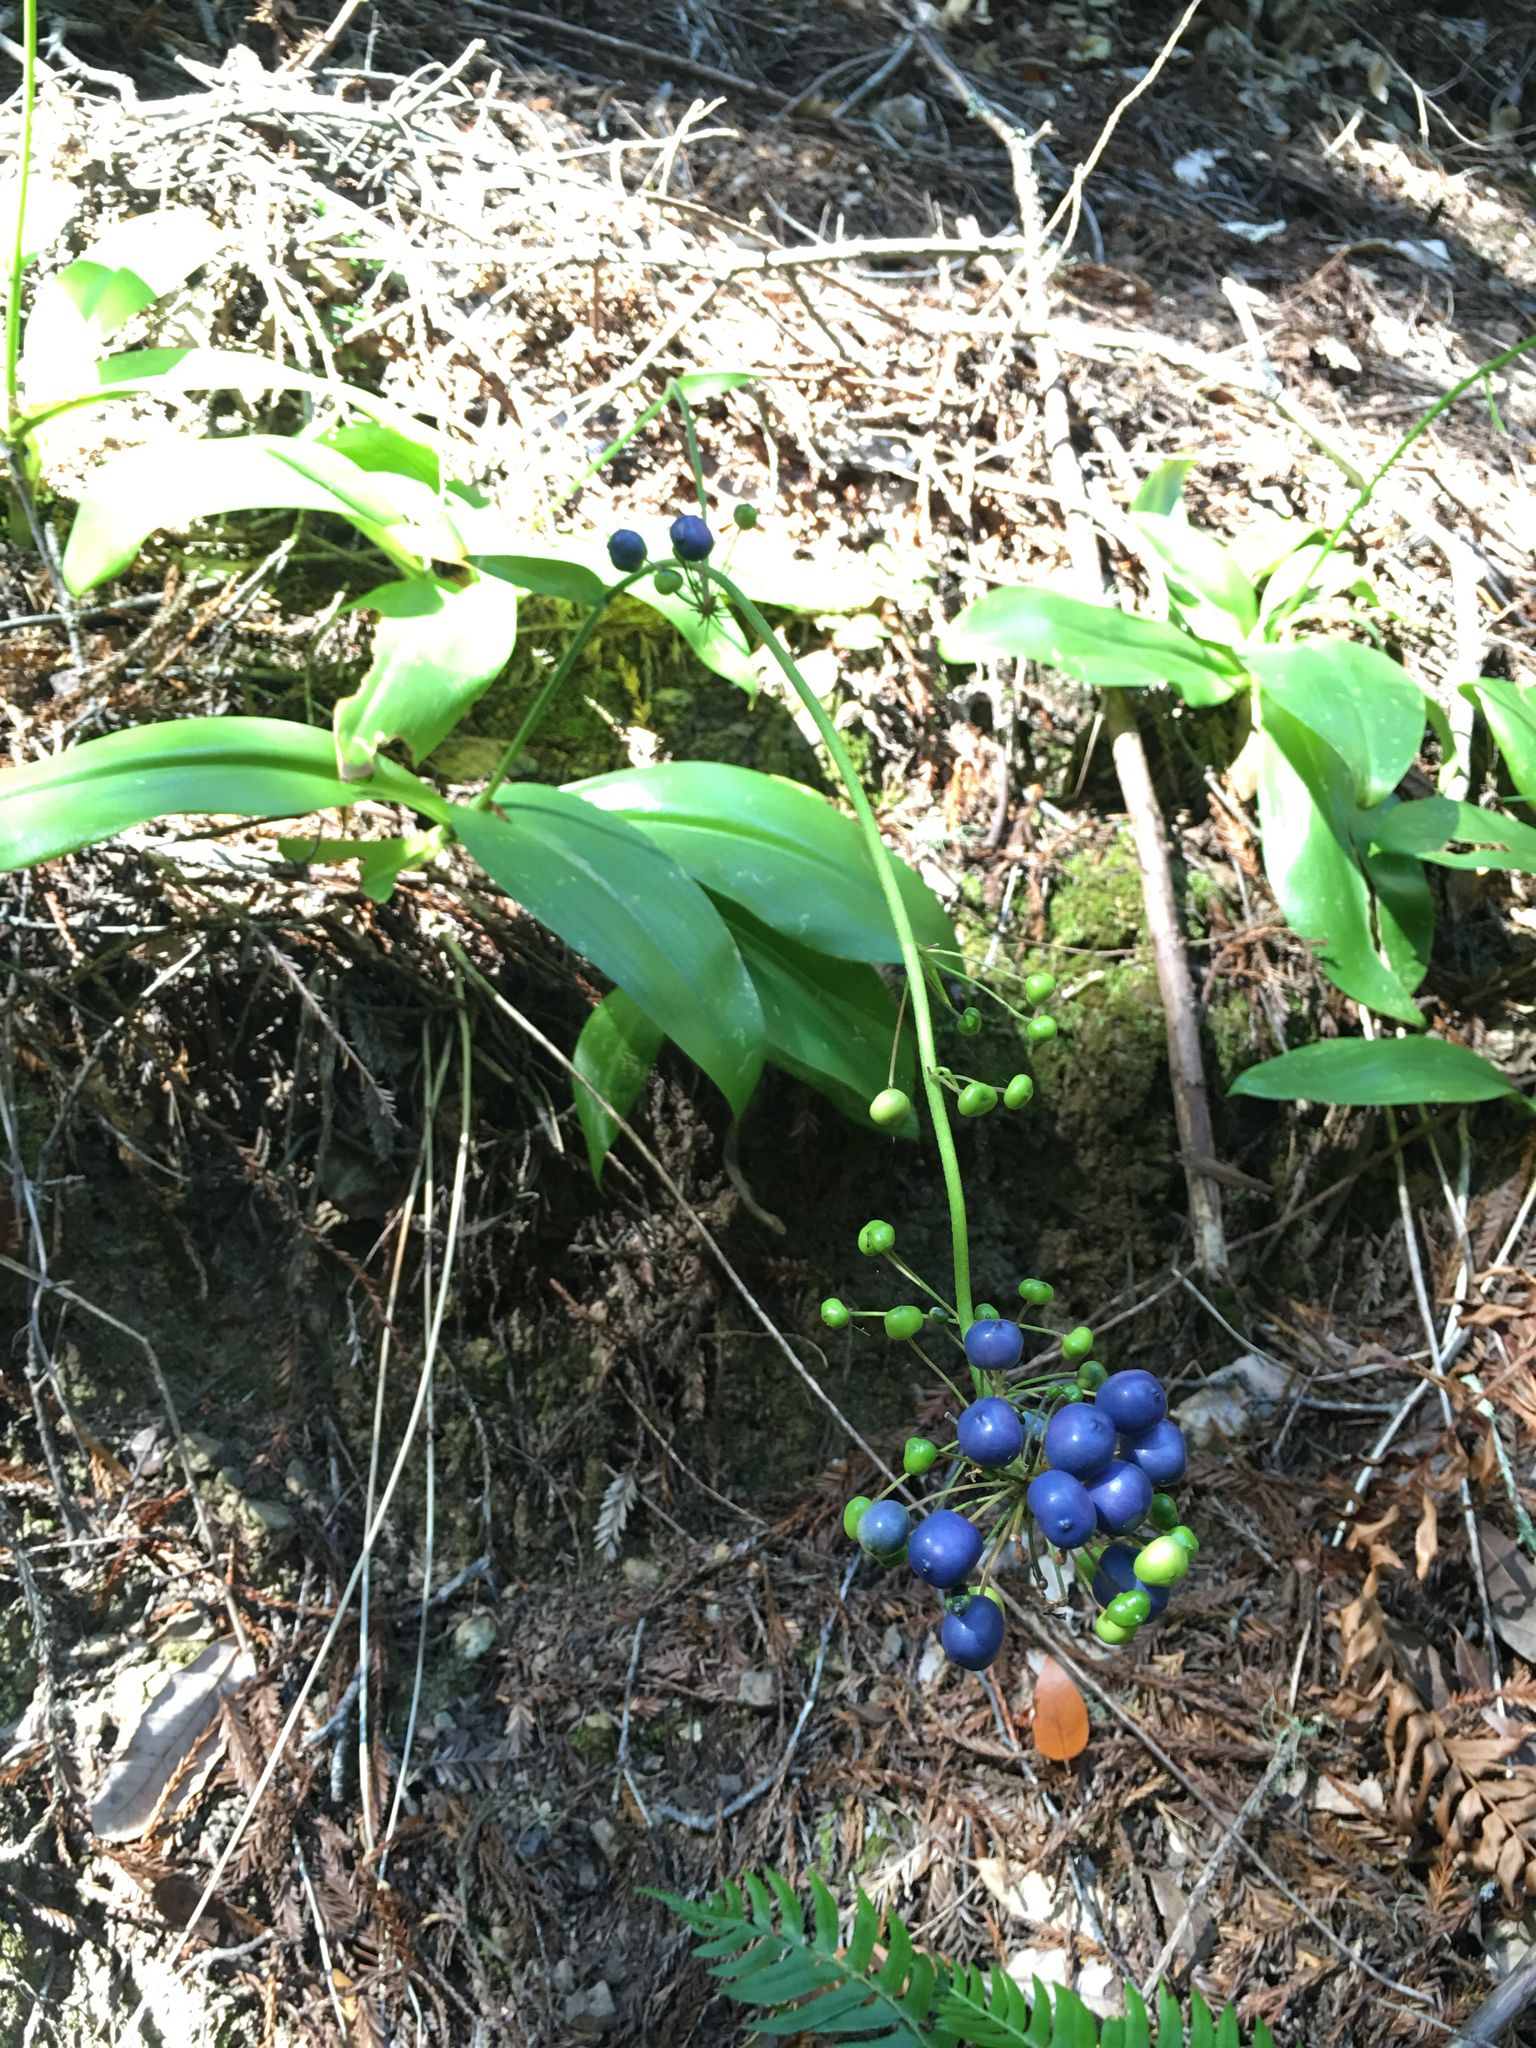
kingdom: Plantae
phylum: Tracheophyta
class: Liliopsida
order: Liliales
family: Liliaceae
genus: Clintonia
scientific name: Clintonia andrewsiana
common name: Red clintonia
